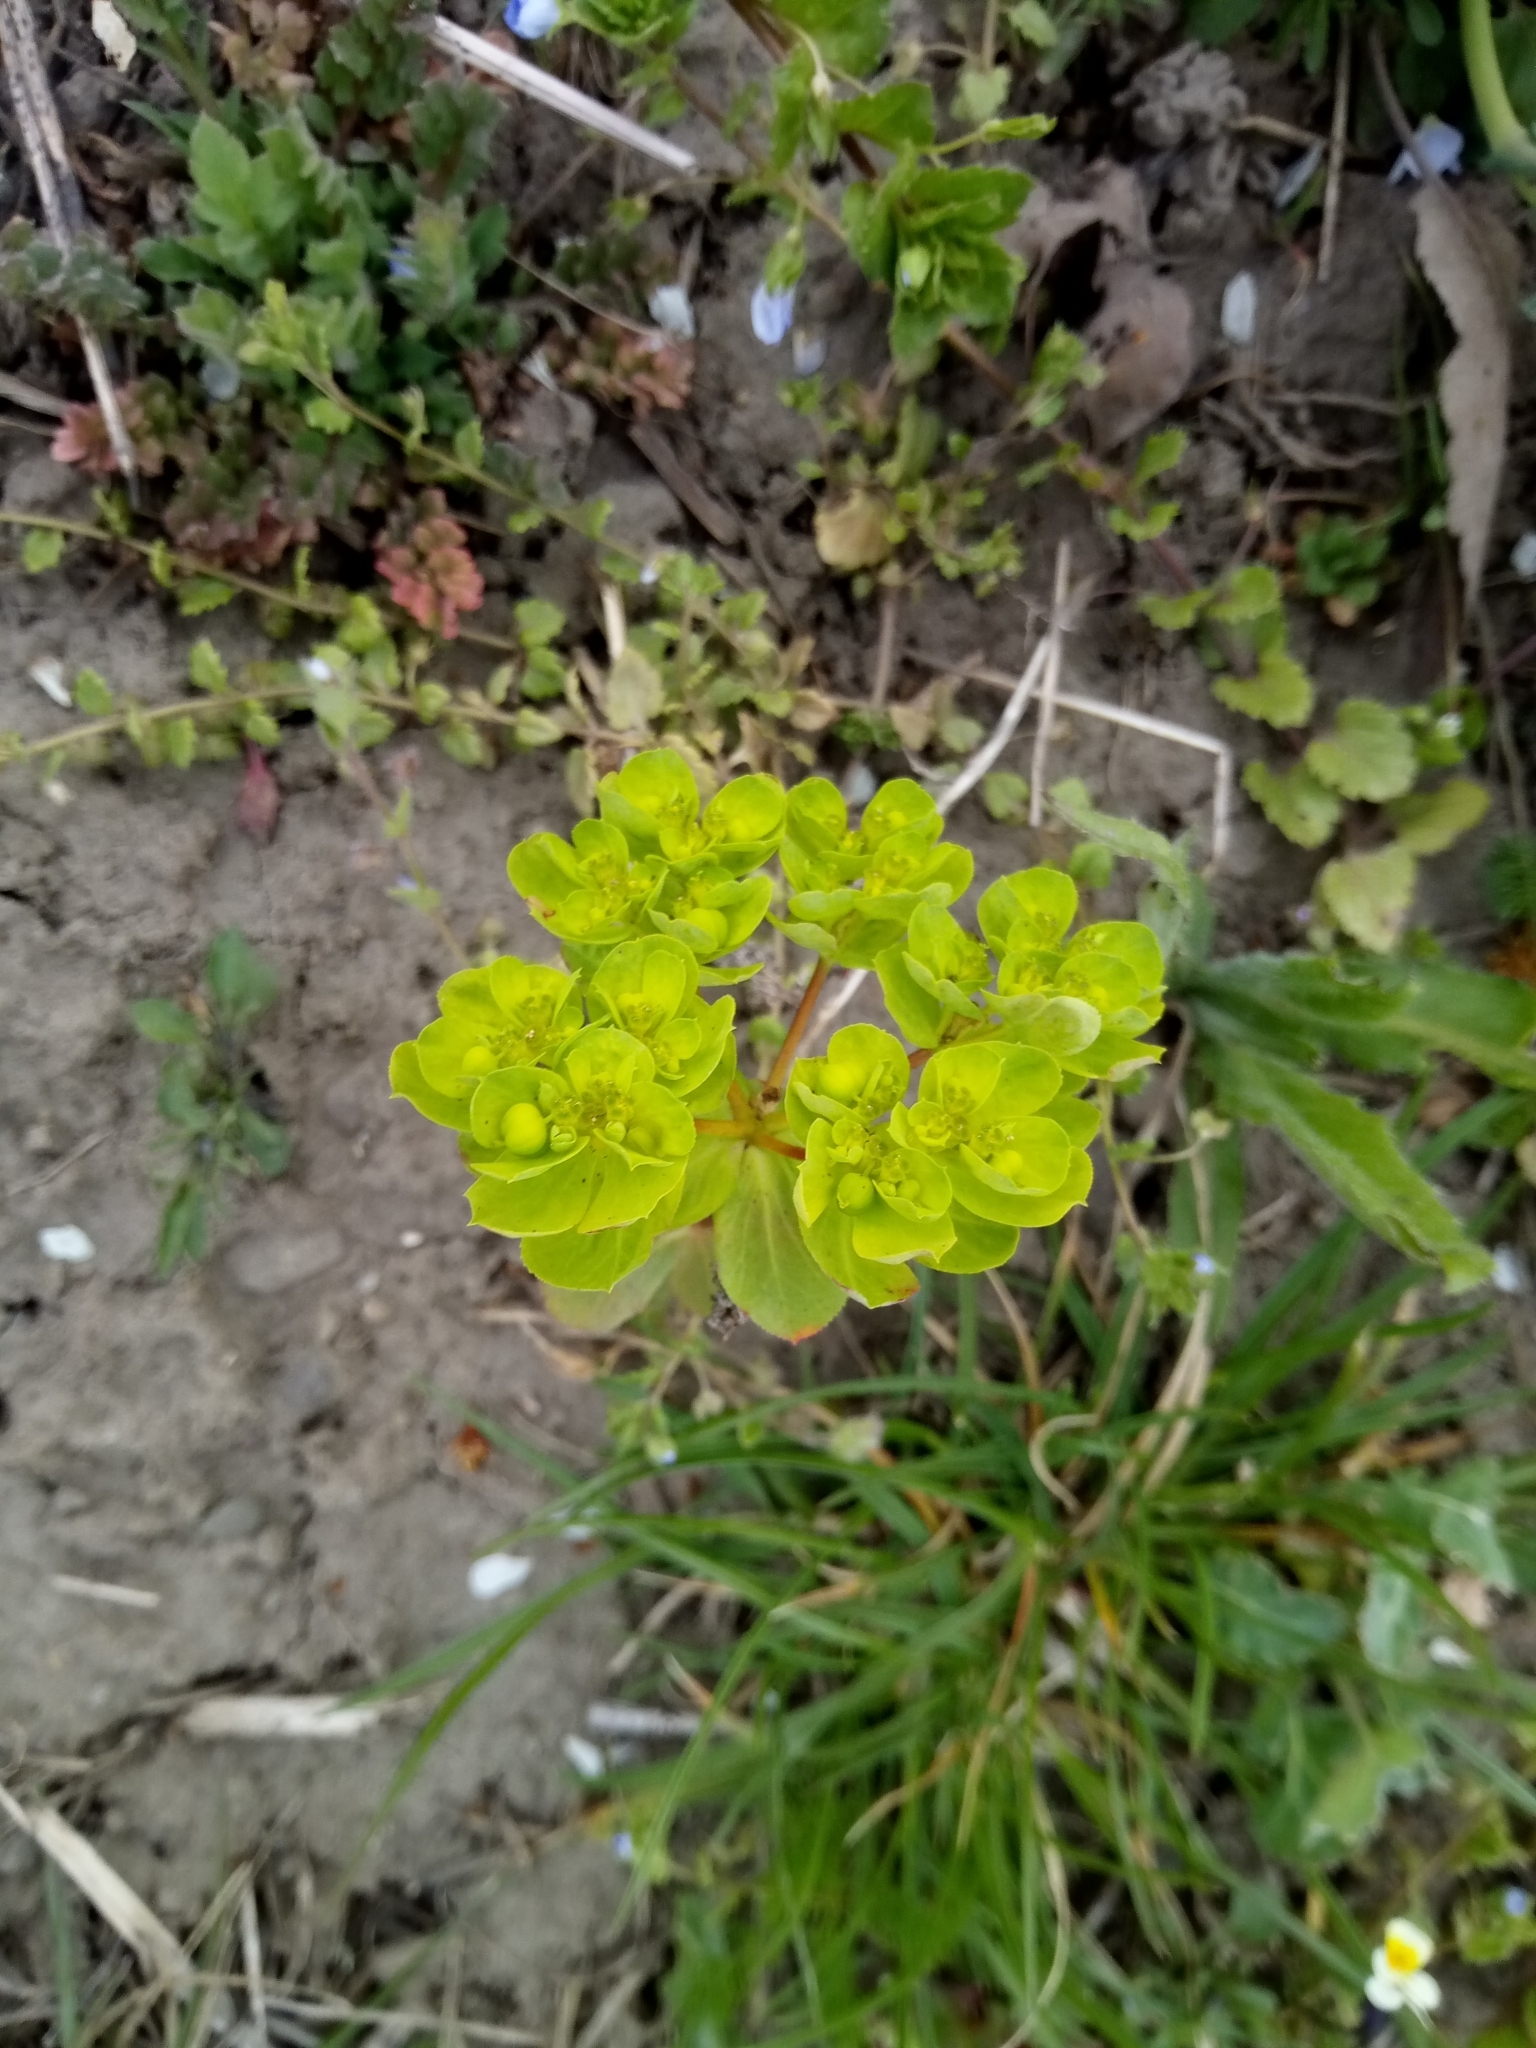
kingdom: Plantae
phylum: Tracheophyta
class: Magnoliopsida
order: Malpighiales
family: Euphorbiaceae
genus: Euphorbia
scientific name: Euphorbia helioscopia
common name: Sun spurge
